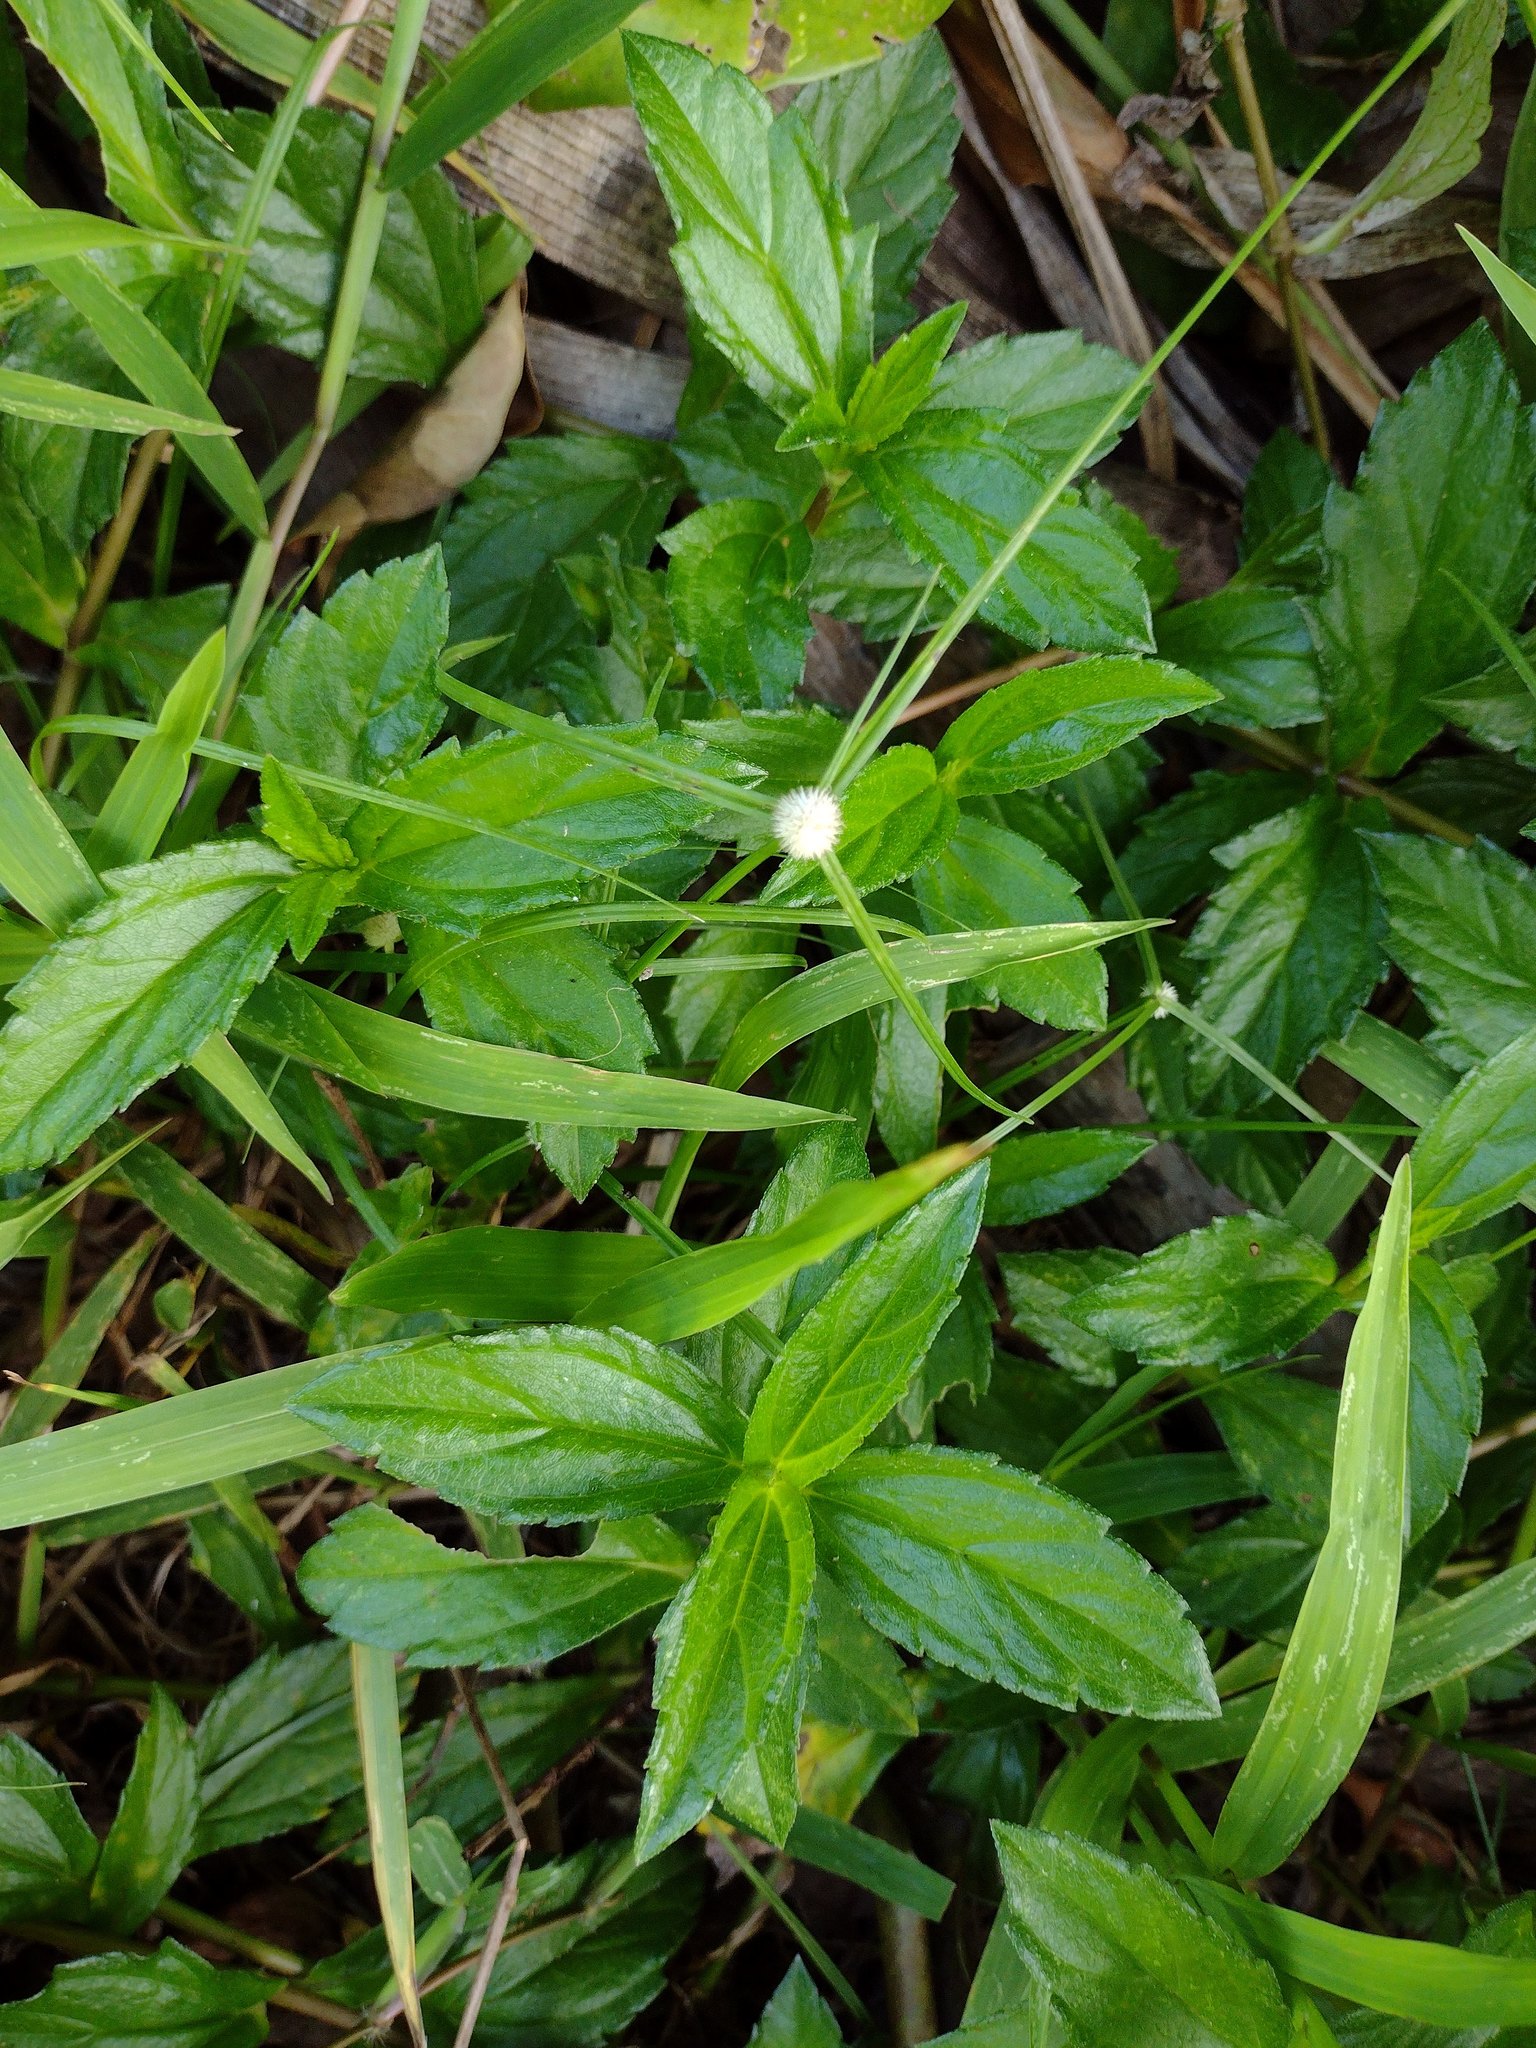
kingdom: Plantae
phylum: Tracheophyta
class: Liliopsida
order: Poales
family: Cyperaceae
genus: Cyperus
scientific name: Cyperus mindorensis
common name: Flatsedge
